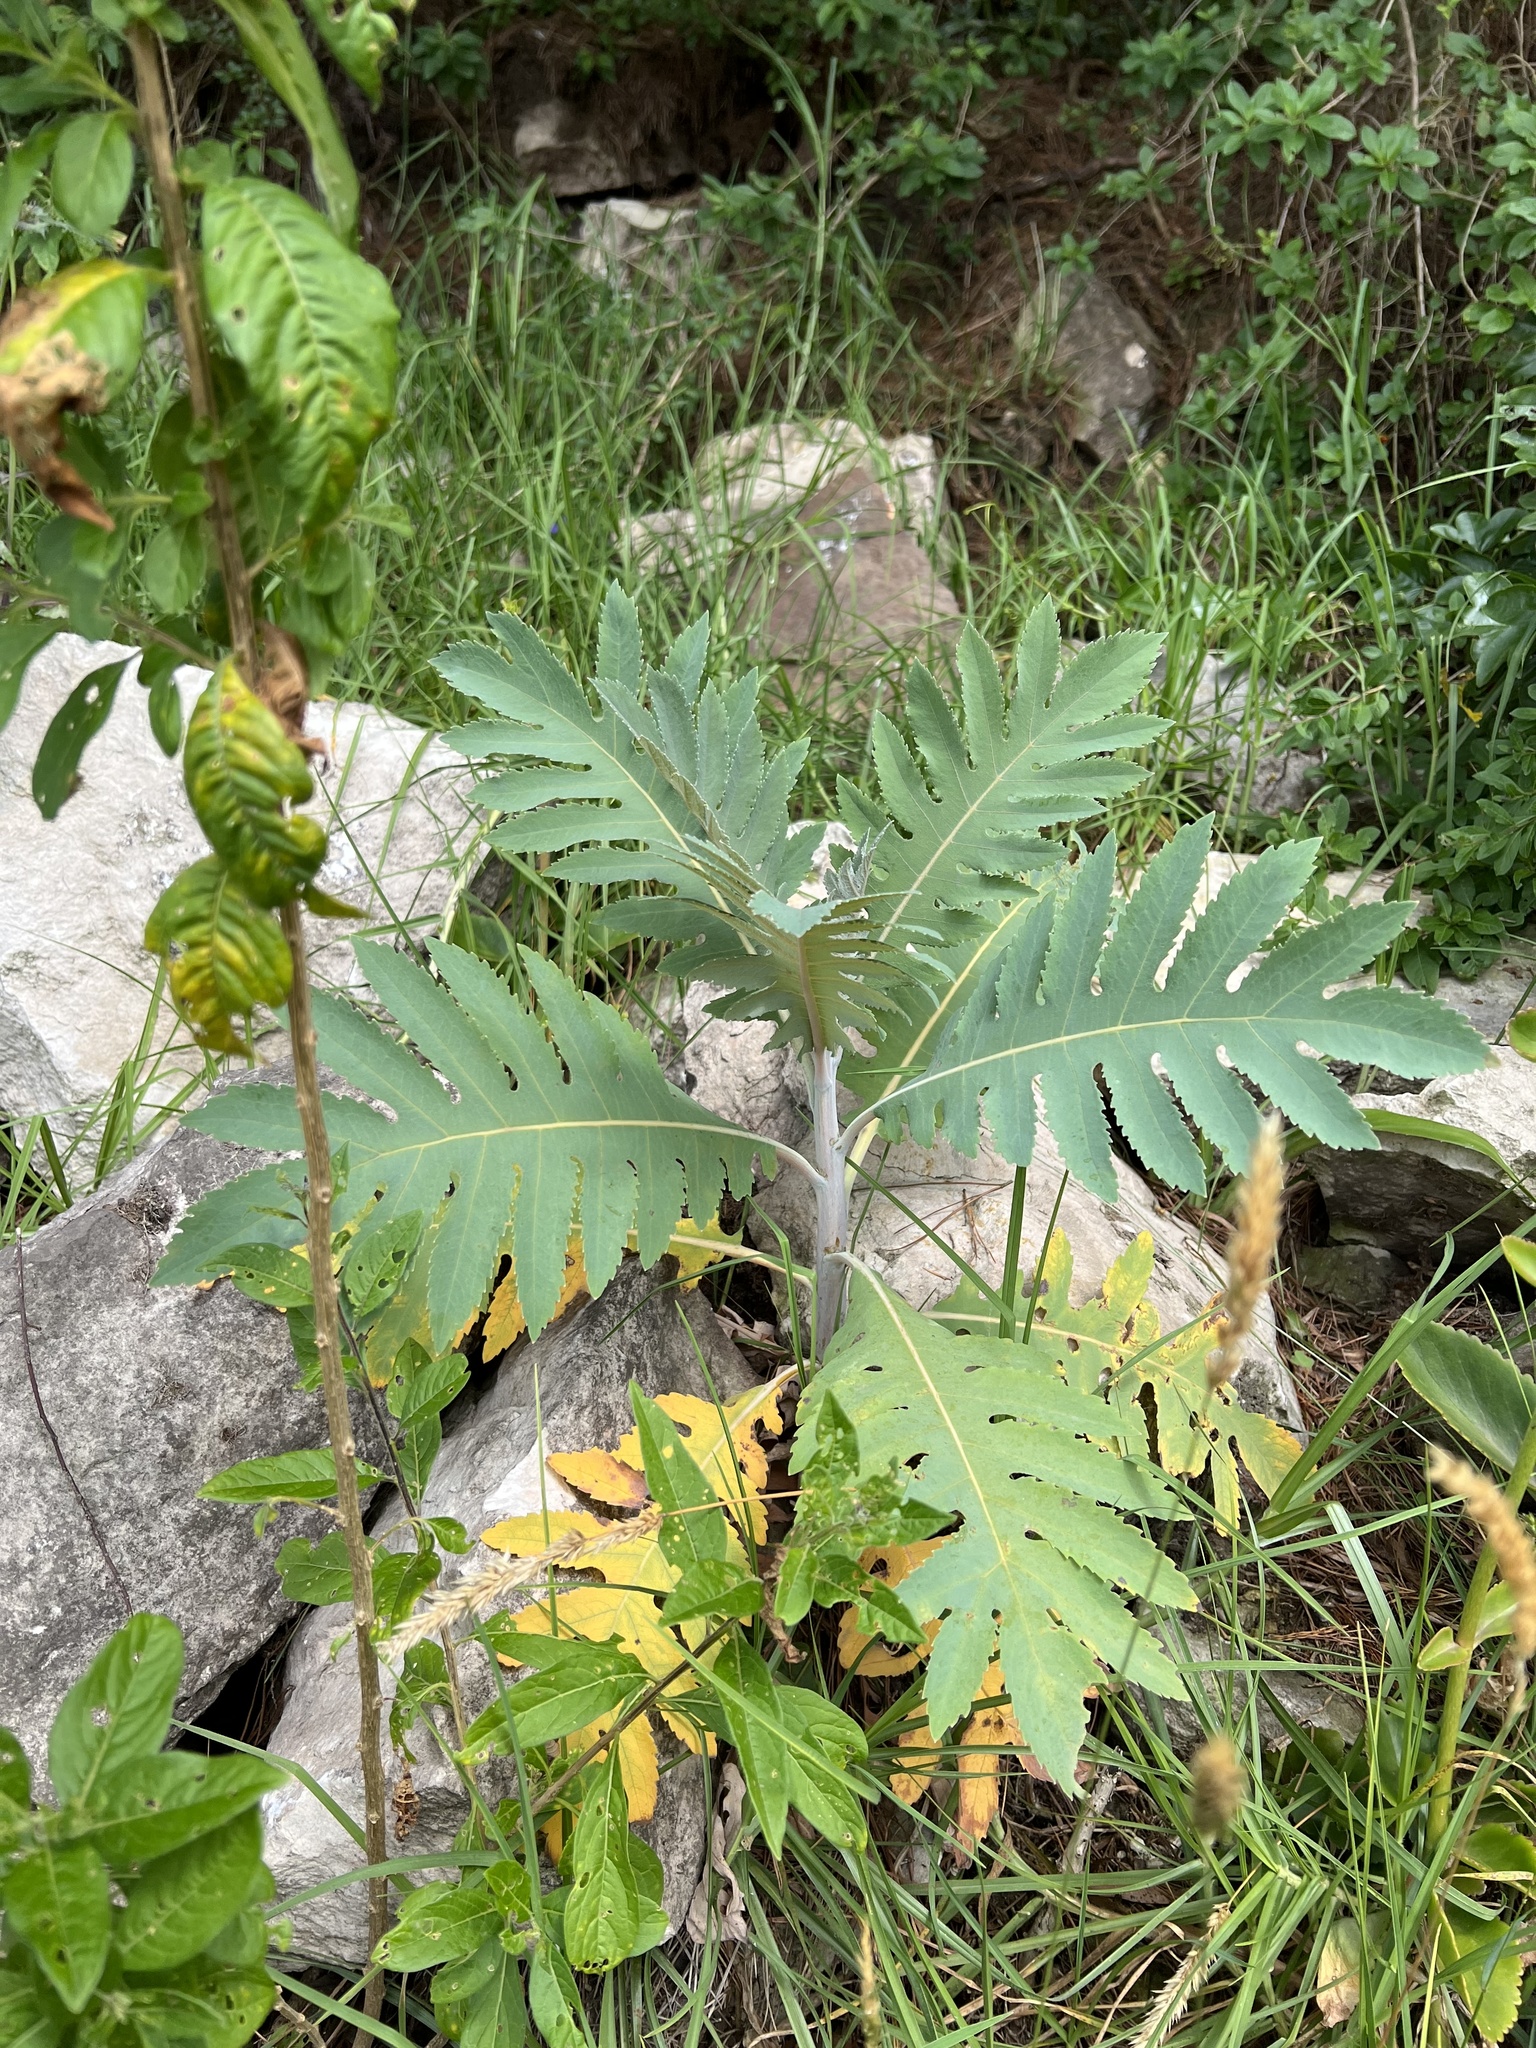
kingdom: Plantae
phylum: Tracheophyta
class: Magnoliopsida
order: Ranunculales
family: Papaveraceae
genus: Bocconia
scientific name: Bocconia frutescens
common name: Tree poppy
